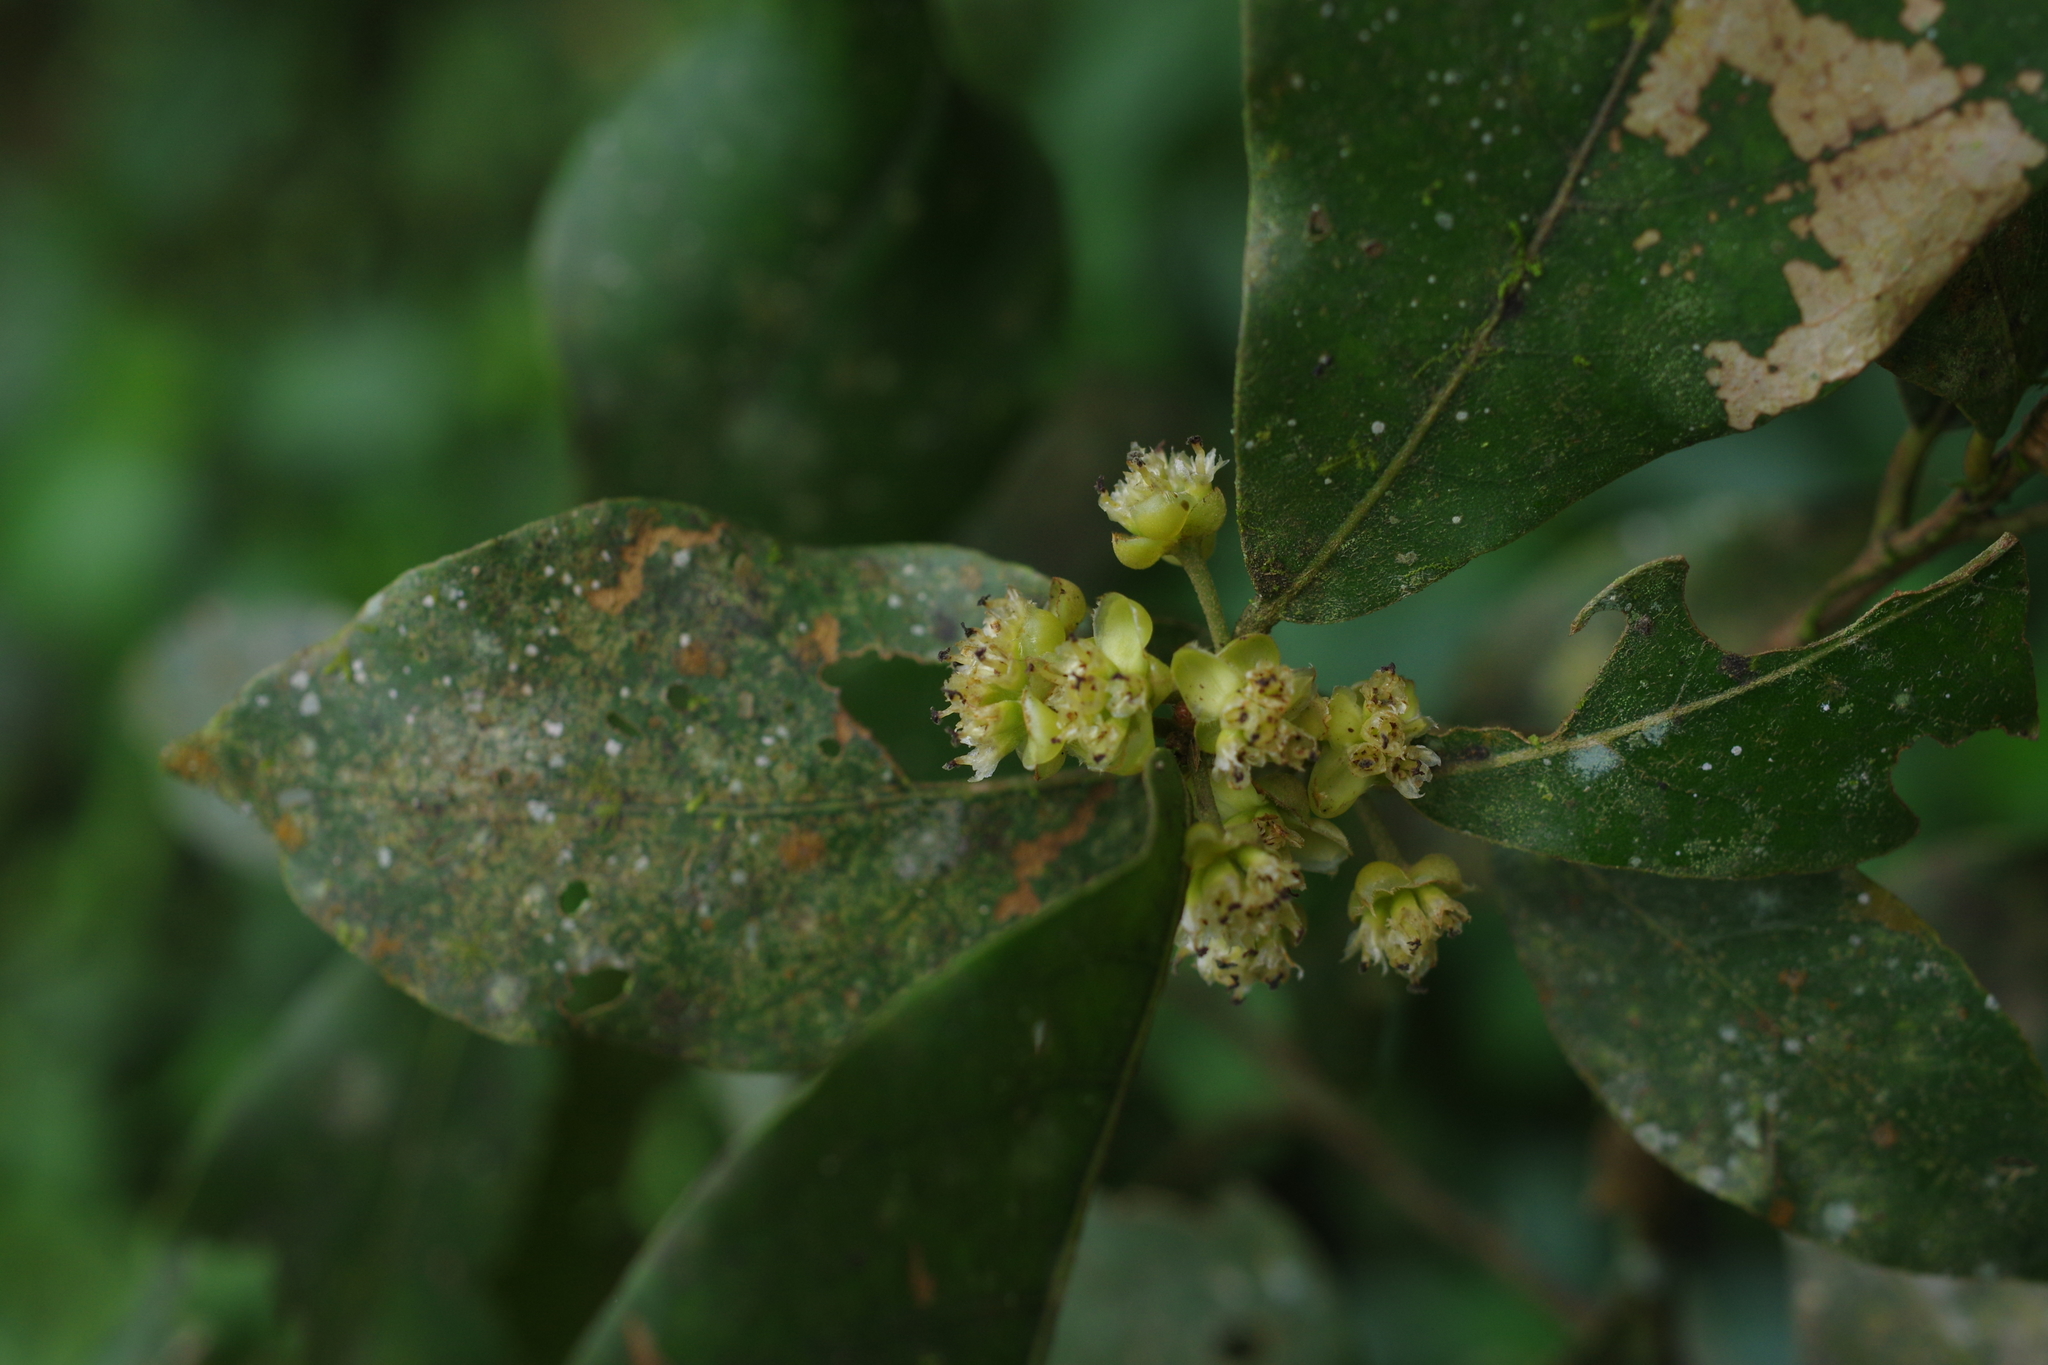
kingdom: Plantae
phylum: Tracheophyta
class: Magnoliopsida
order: Laurales
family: Lauraceae
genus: Litsea
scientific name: Litsea akoensis
